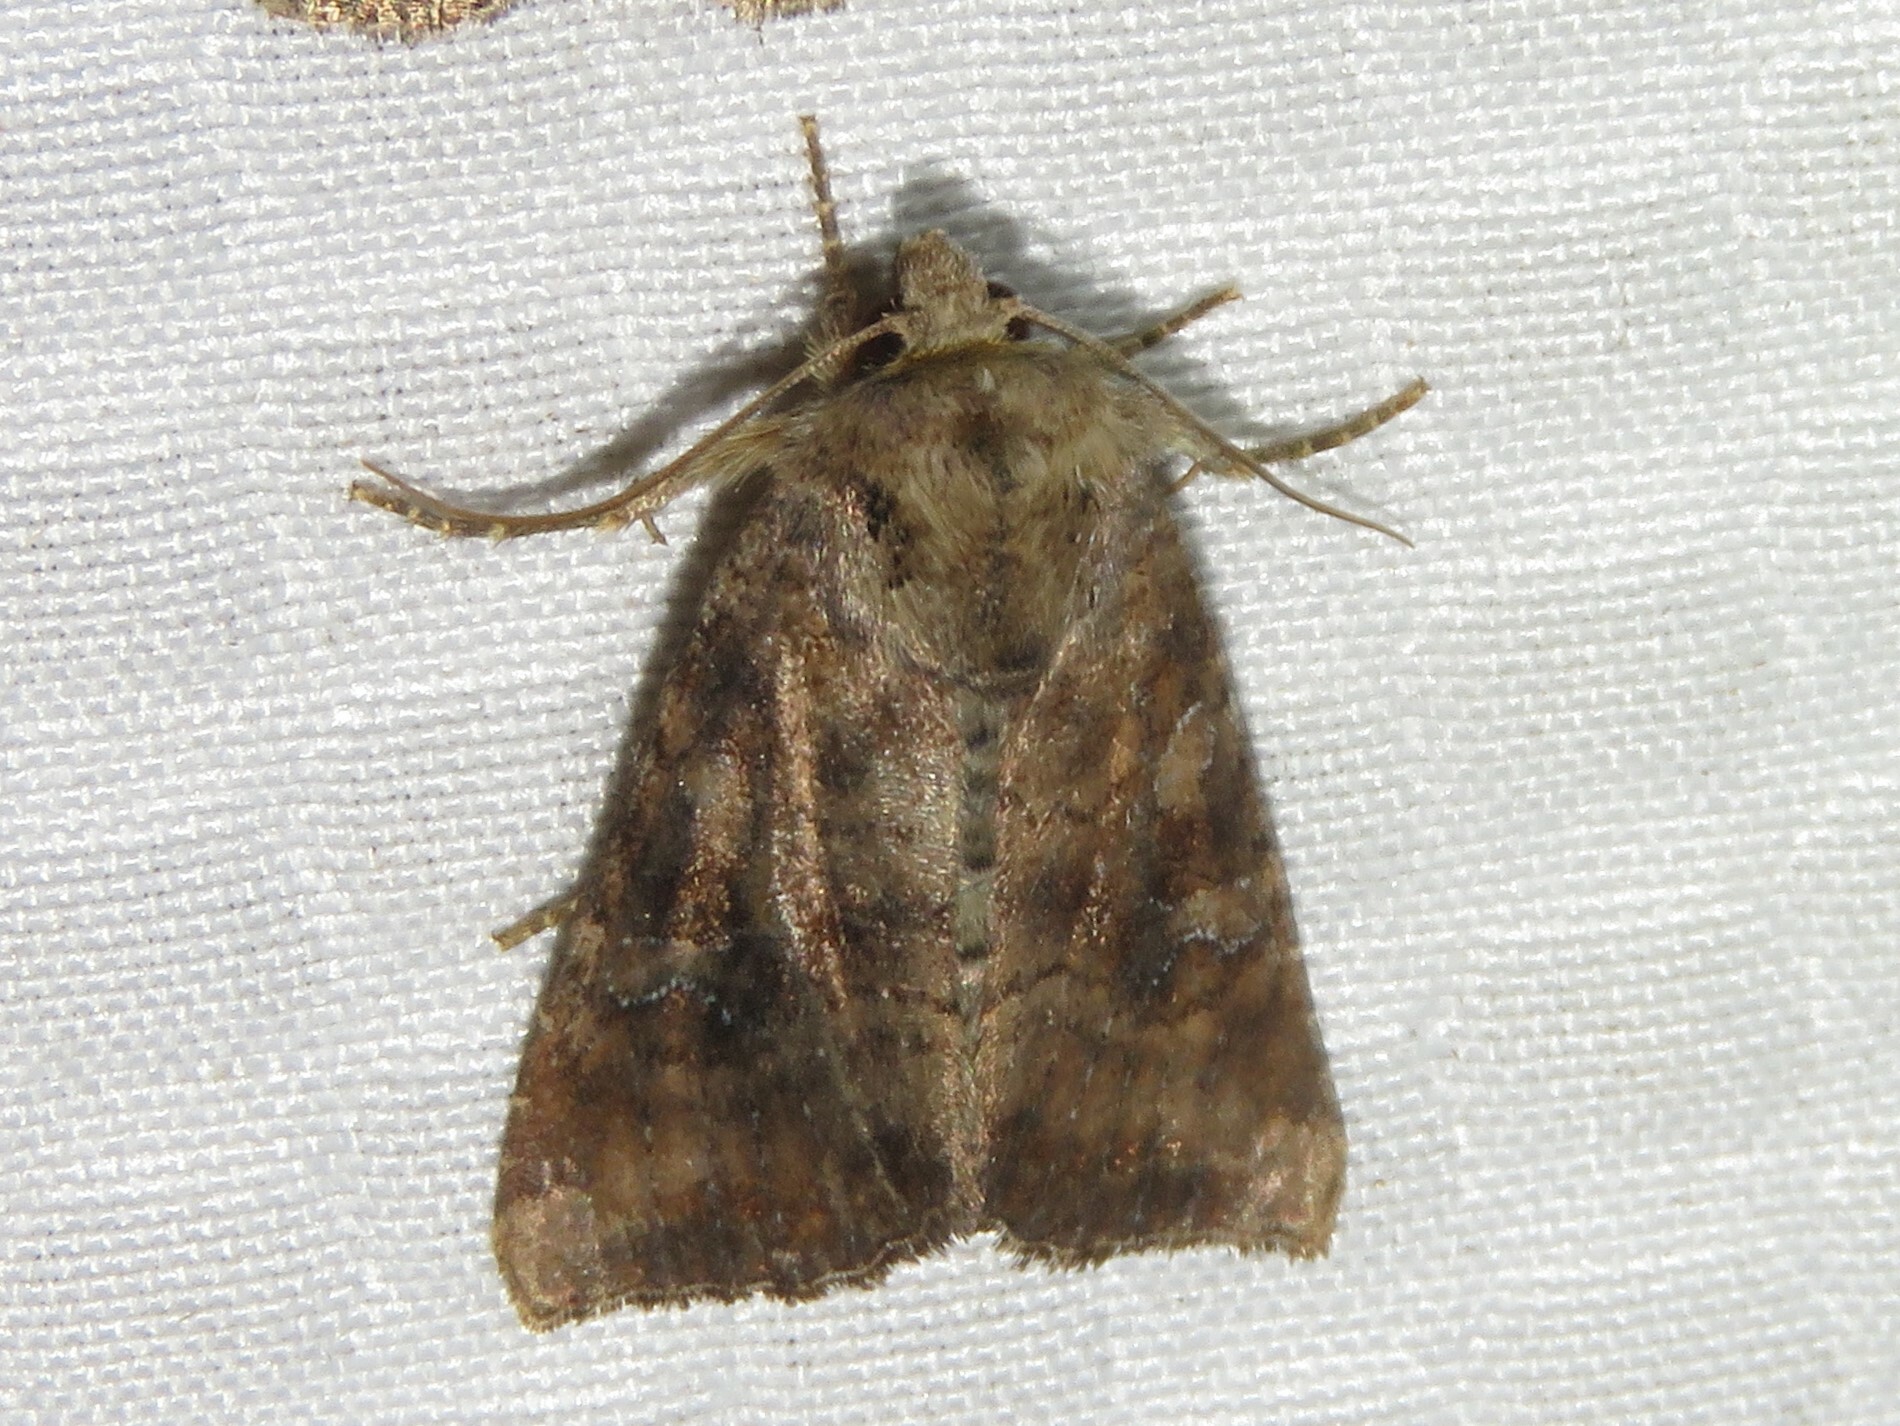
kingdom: Animalia
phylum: Arthropoda
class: Insecta
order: Lepidoptera
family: Noctuidae
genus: Loscopia
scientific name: Loscopia velata
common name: Veiled ear moth
